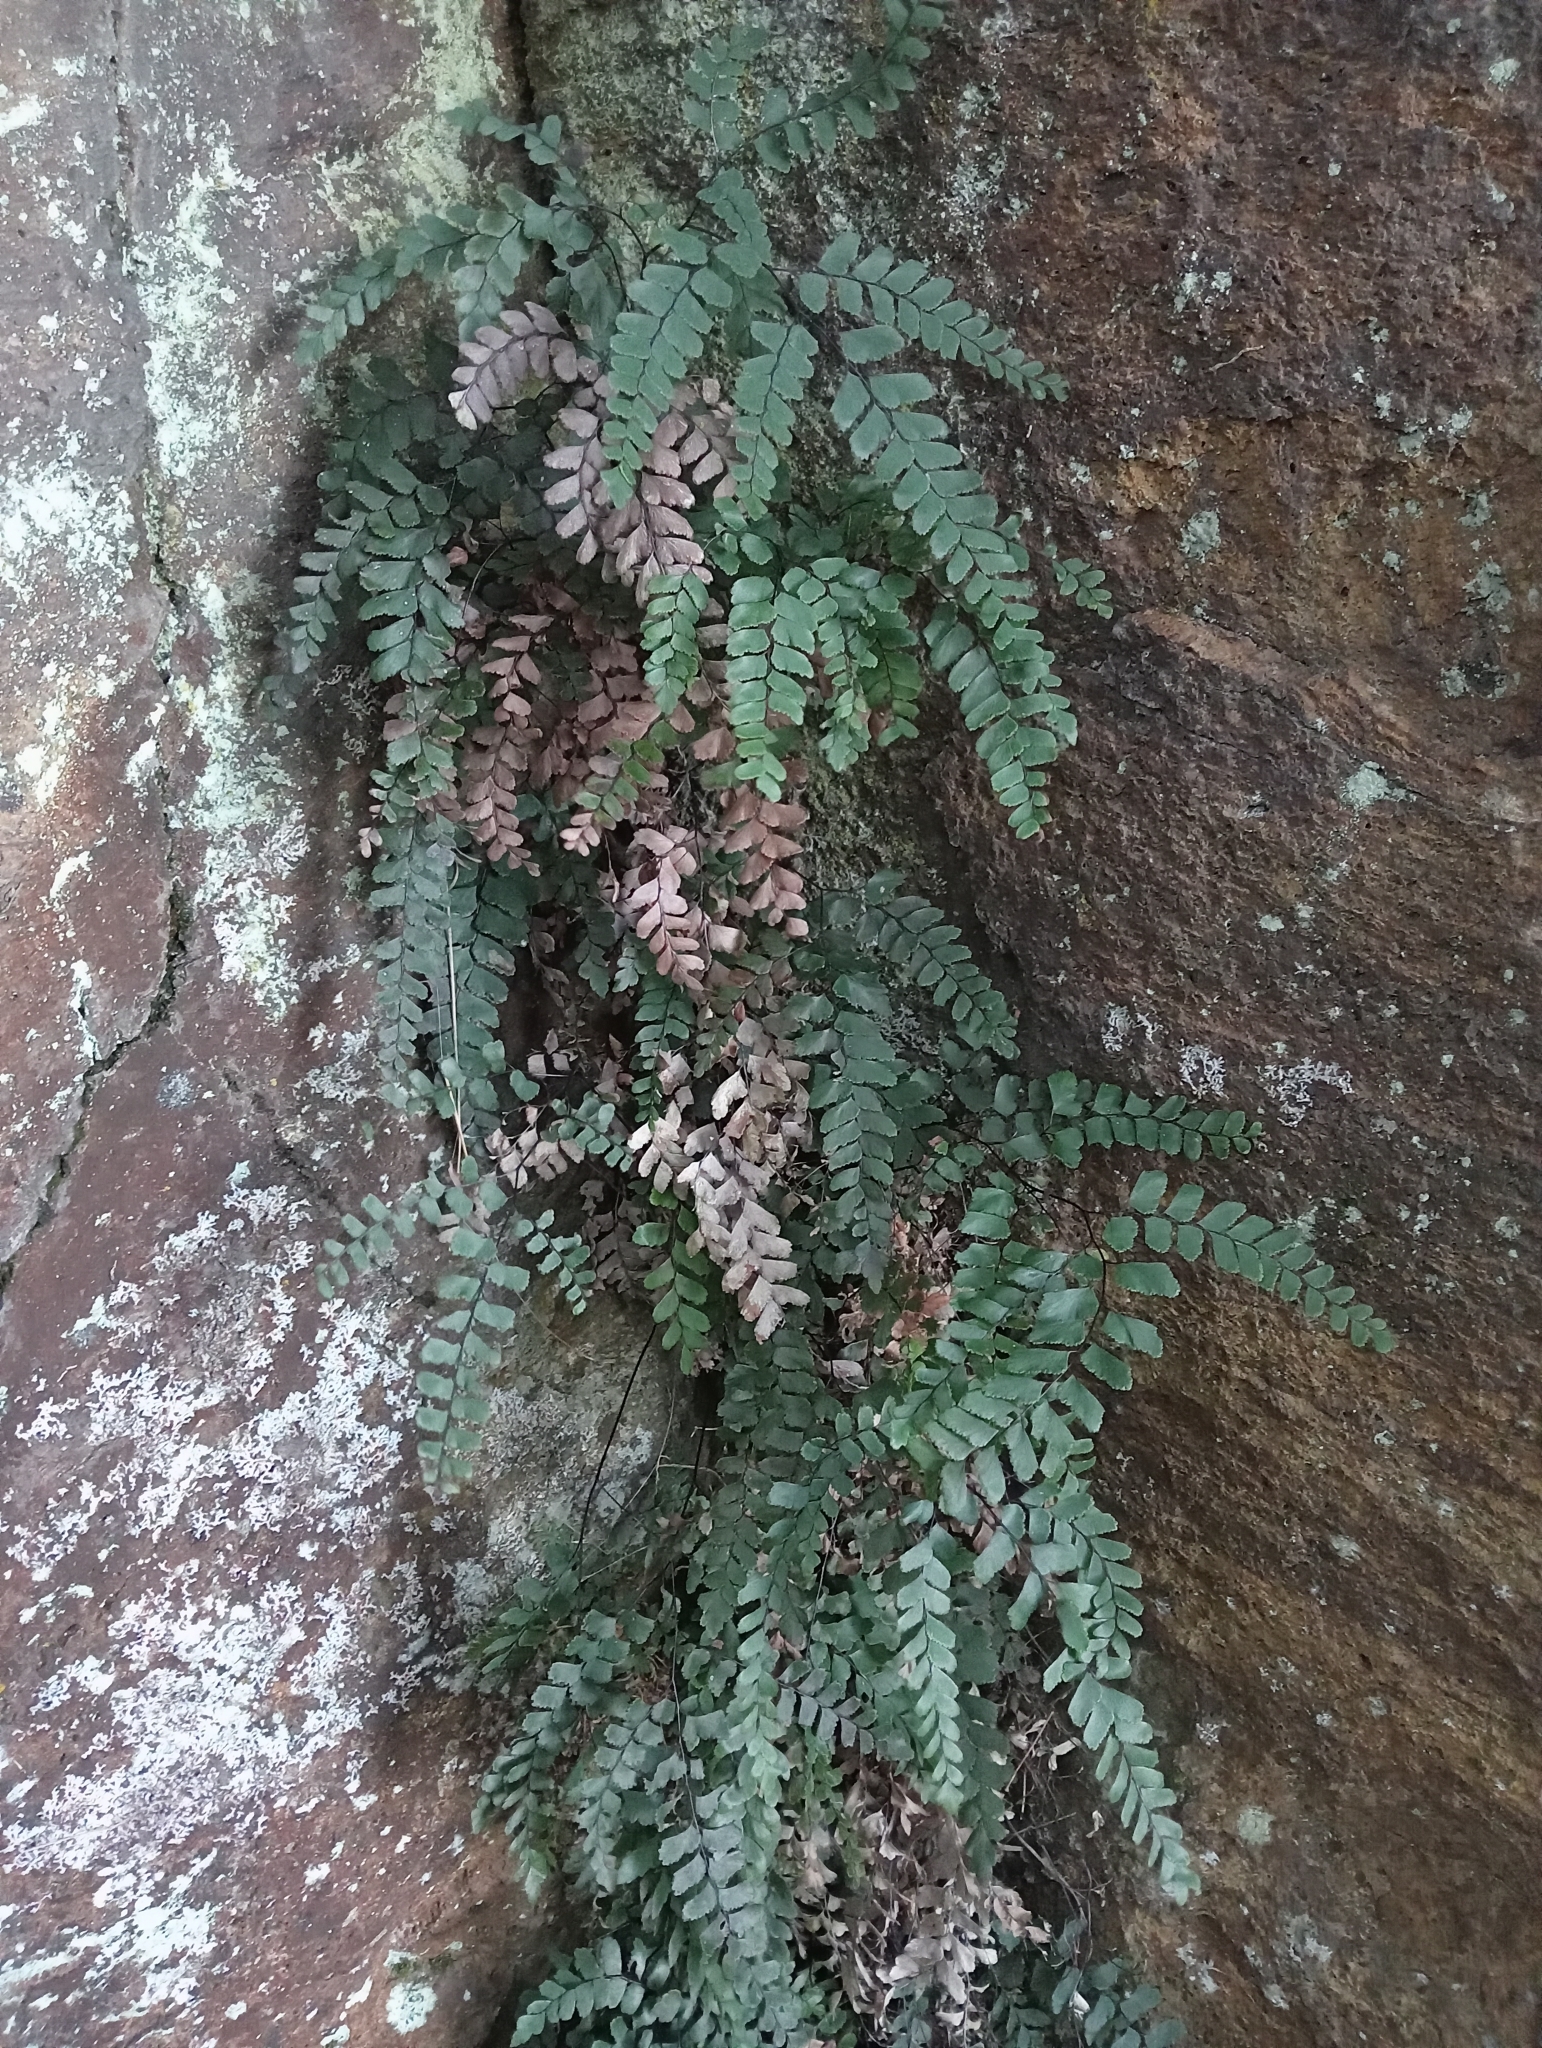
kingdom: Plantae
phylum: Tracheophyta
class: Polypodiopsida
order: Polypodiales
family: Pteridaceae
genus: Adiantum
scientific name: Adiantum cunninghamii
